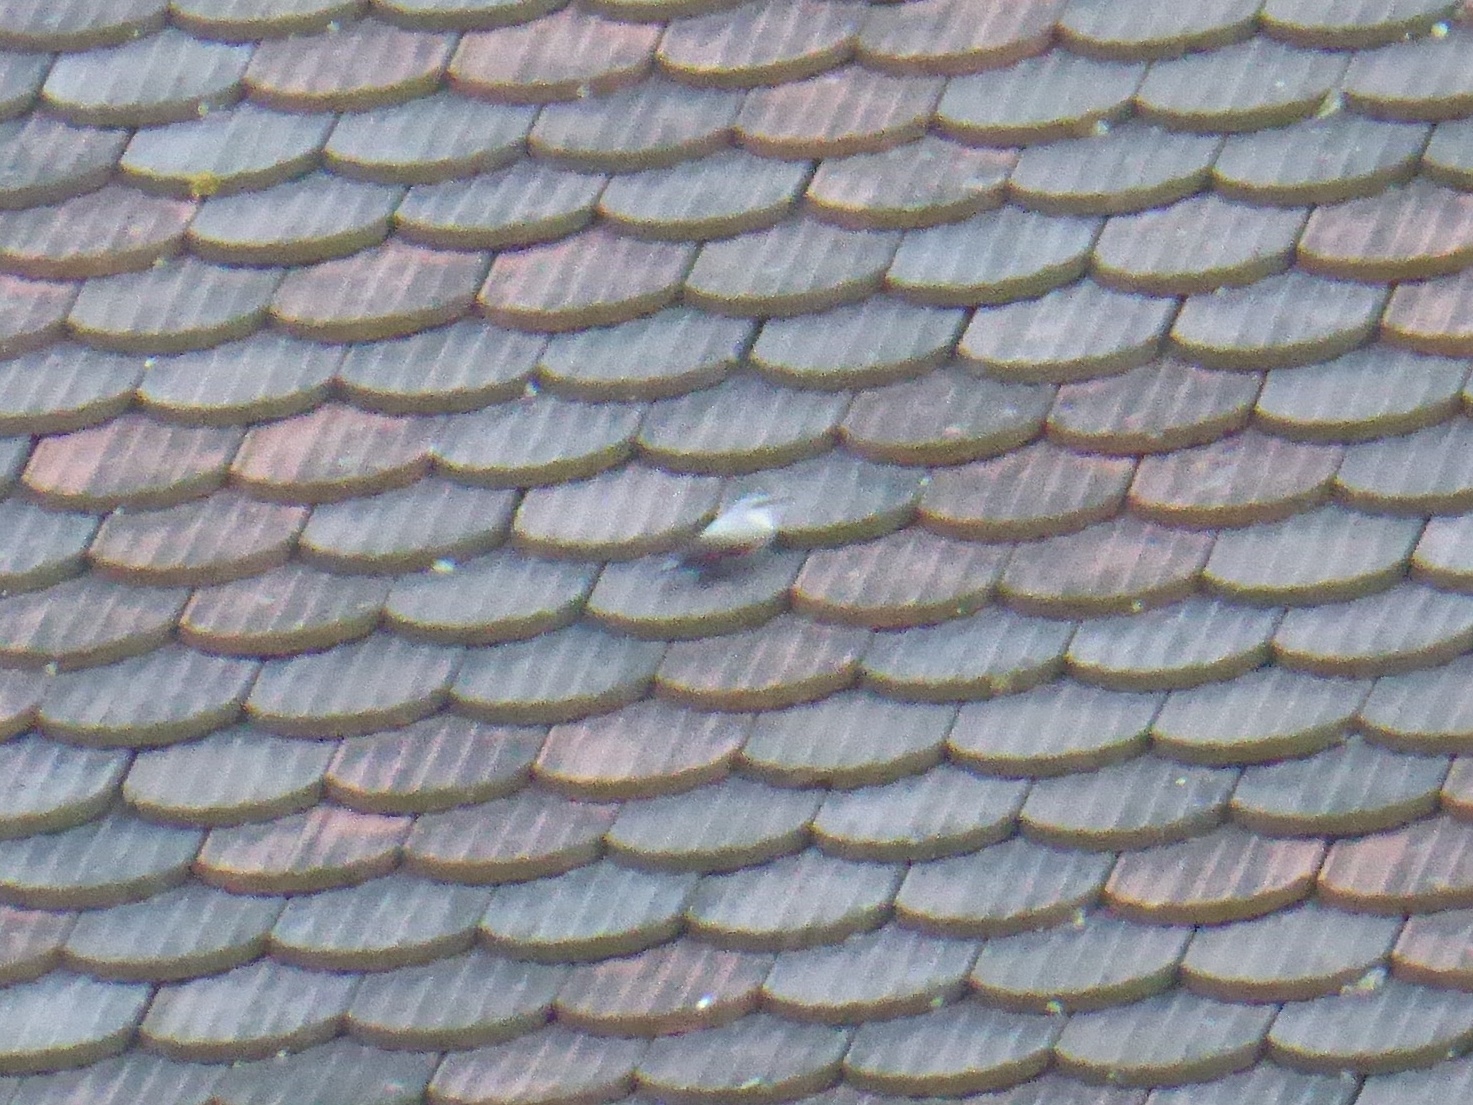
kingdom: Animalia
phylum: Chordata
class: Aves
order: Passeriformes
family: Tichodromidae
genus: Tichodroma
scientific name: Tichodroma muraria
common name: Wallcreeper
